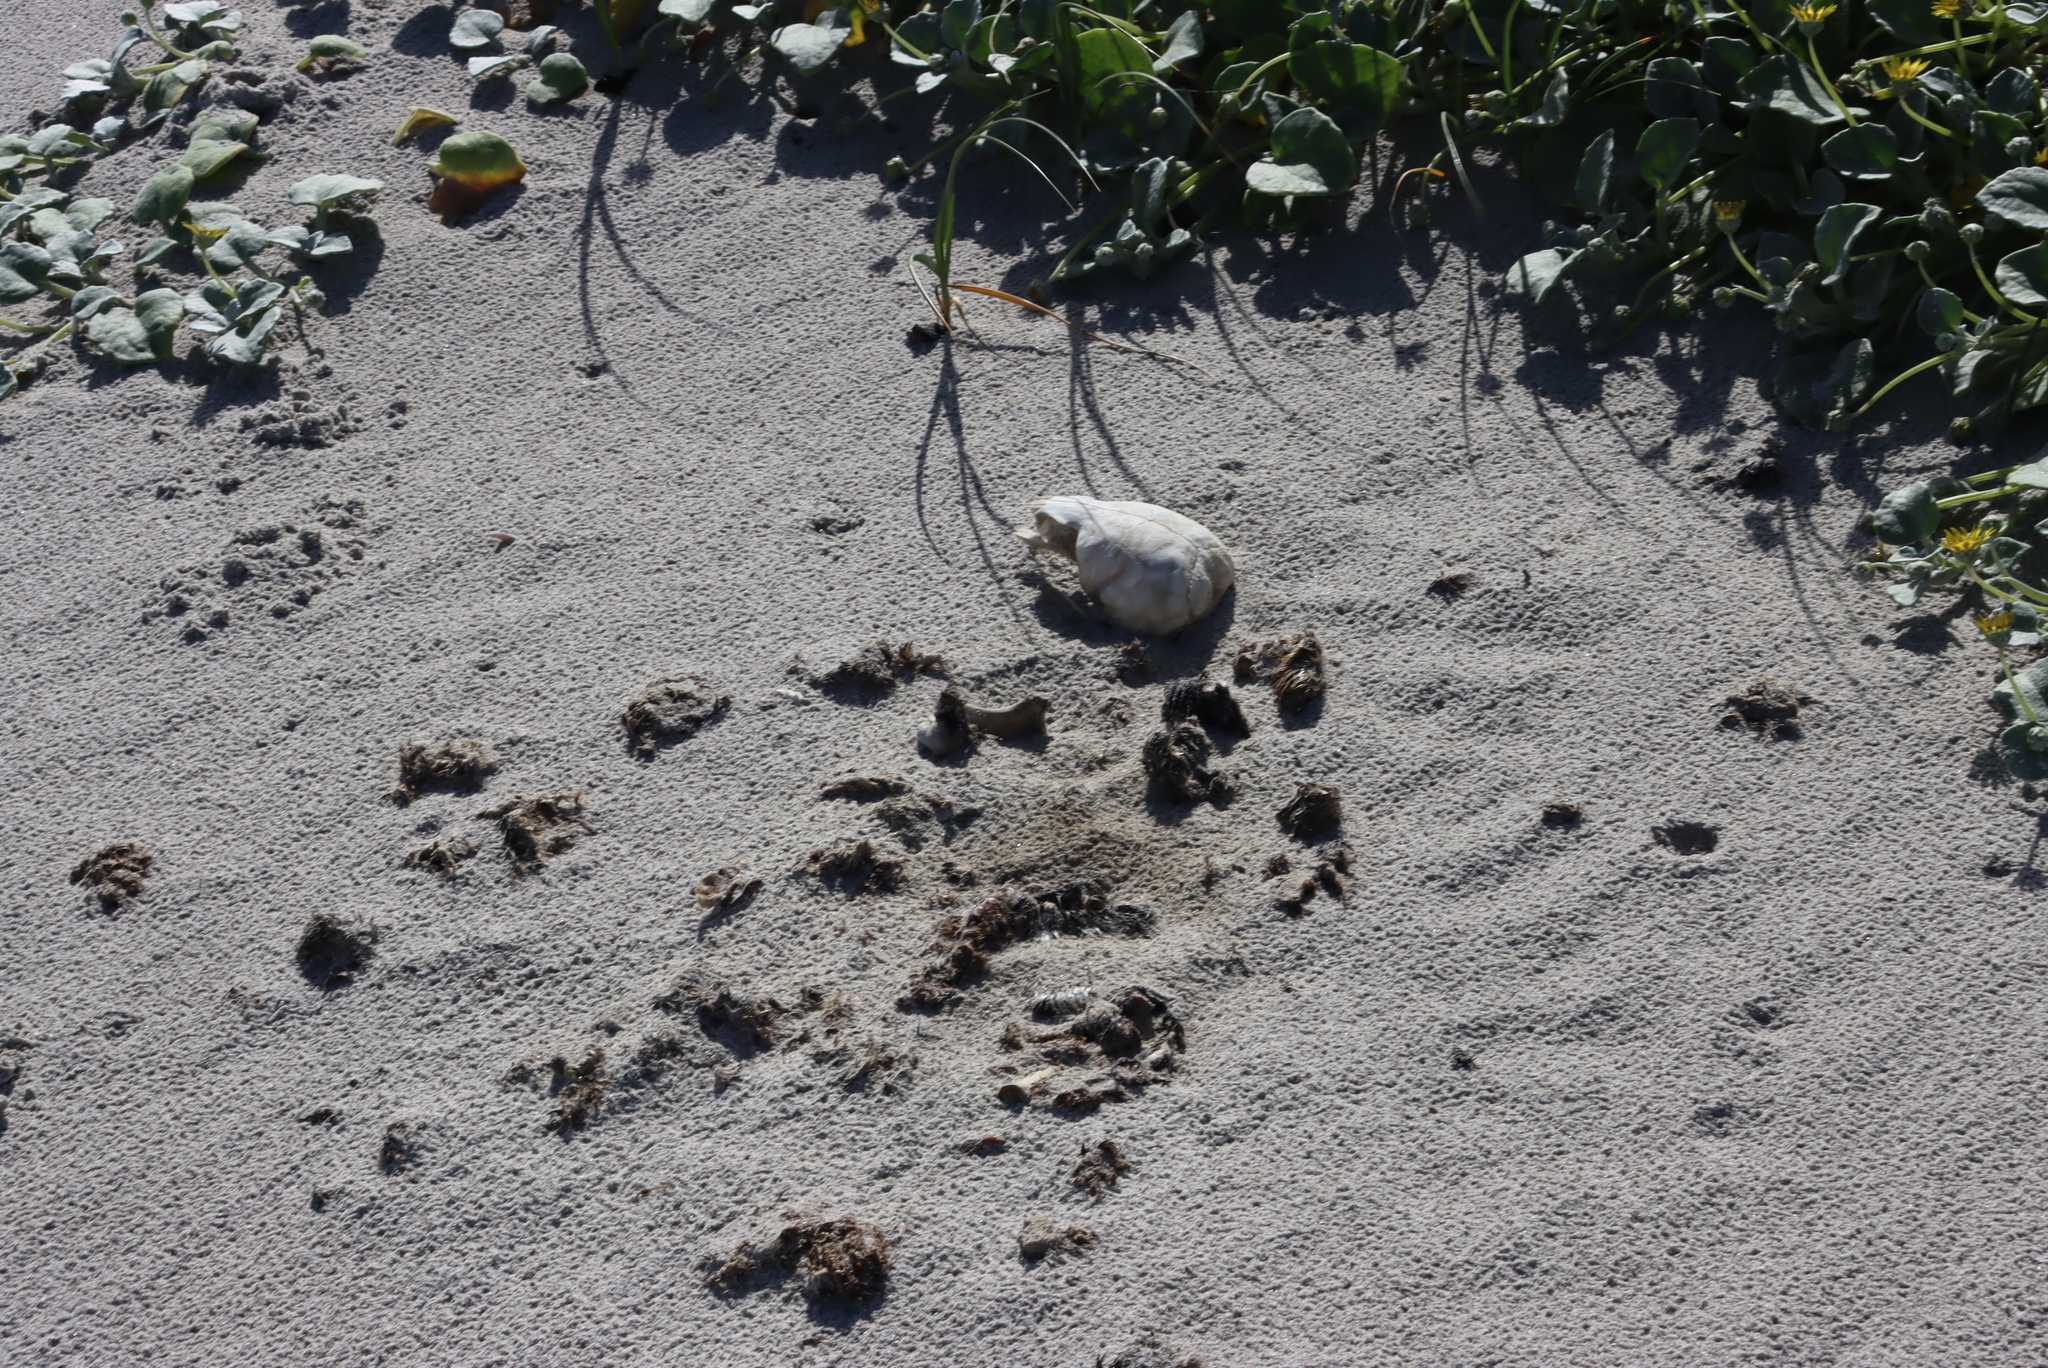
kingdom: Animalia
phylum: Chordata
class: Mammalia
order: Carnivora
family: Otariidae
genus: Arctocephalus
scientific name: Arctocephalus pusillus
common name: Brown fur seal
